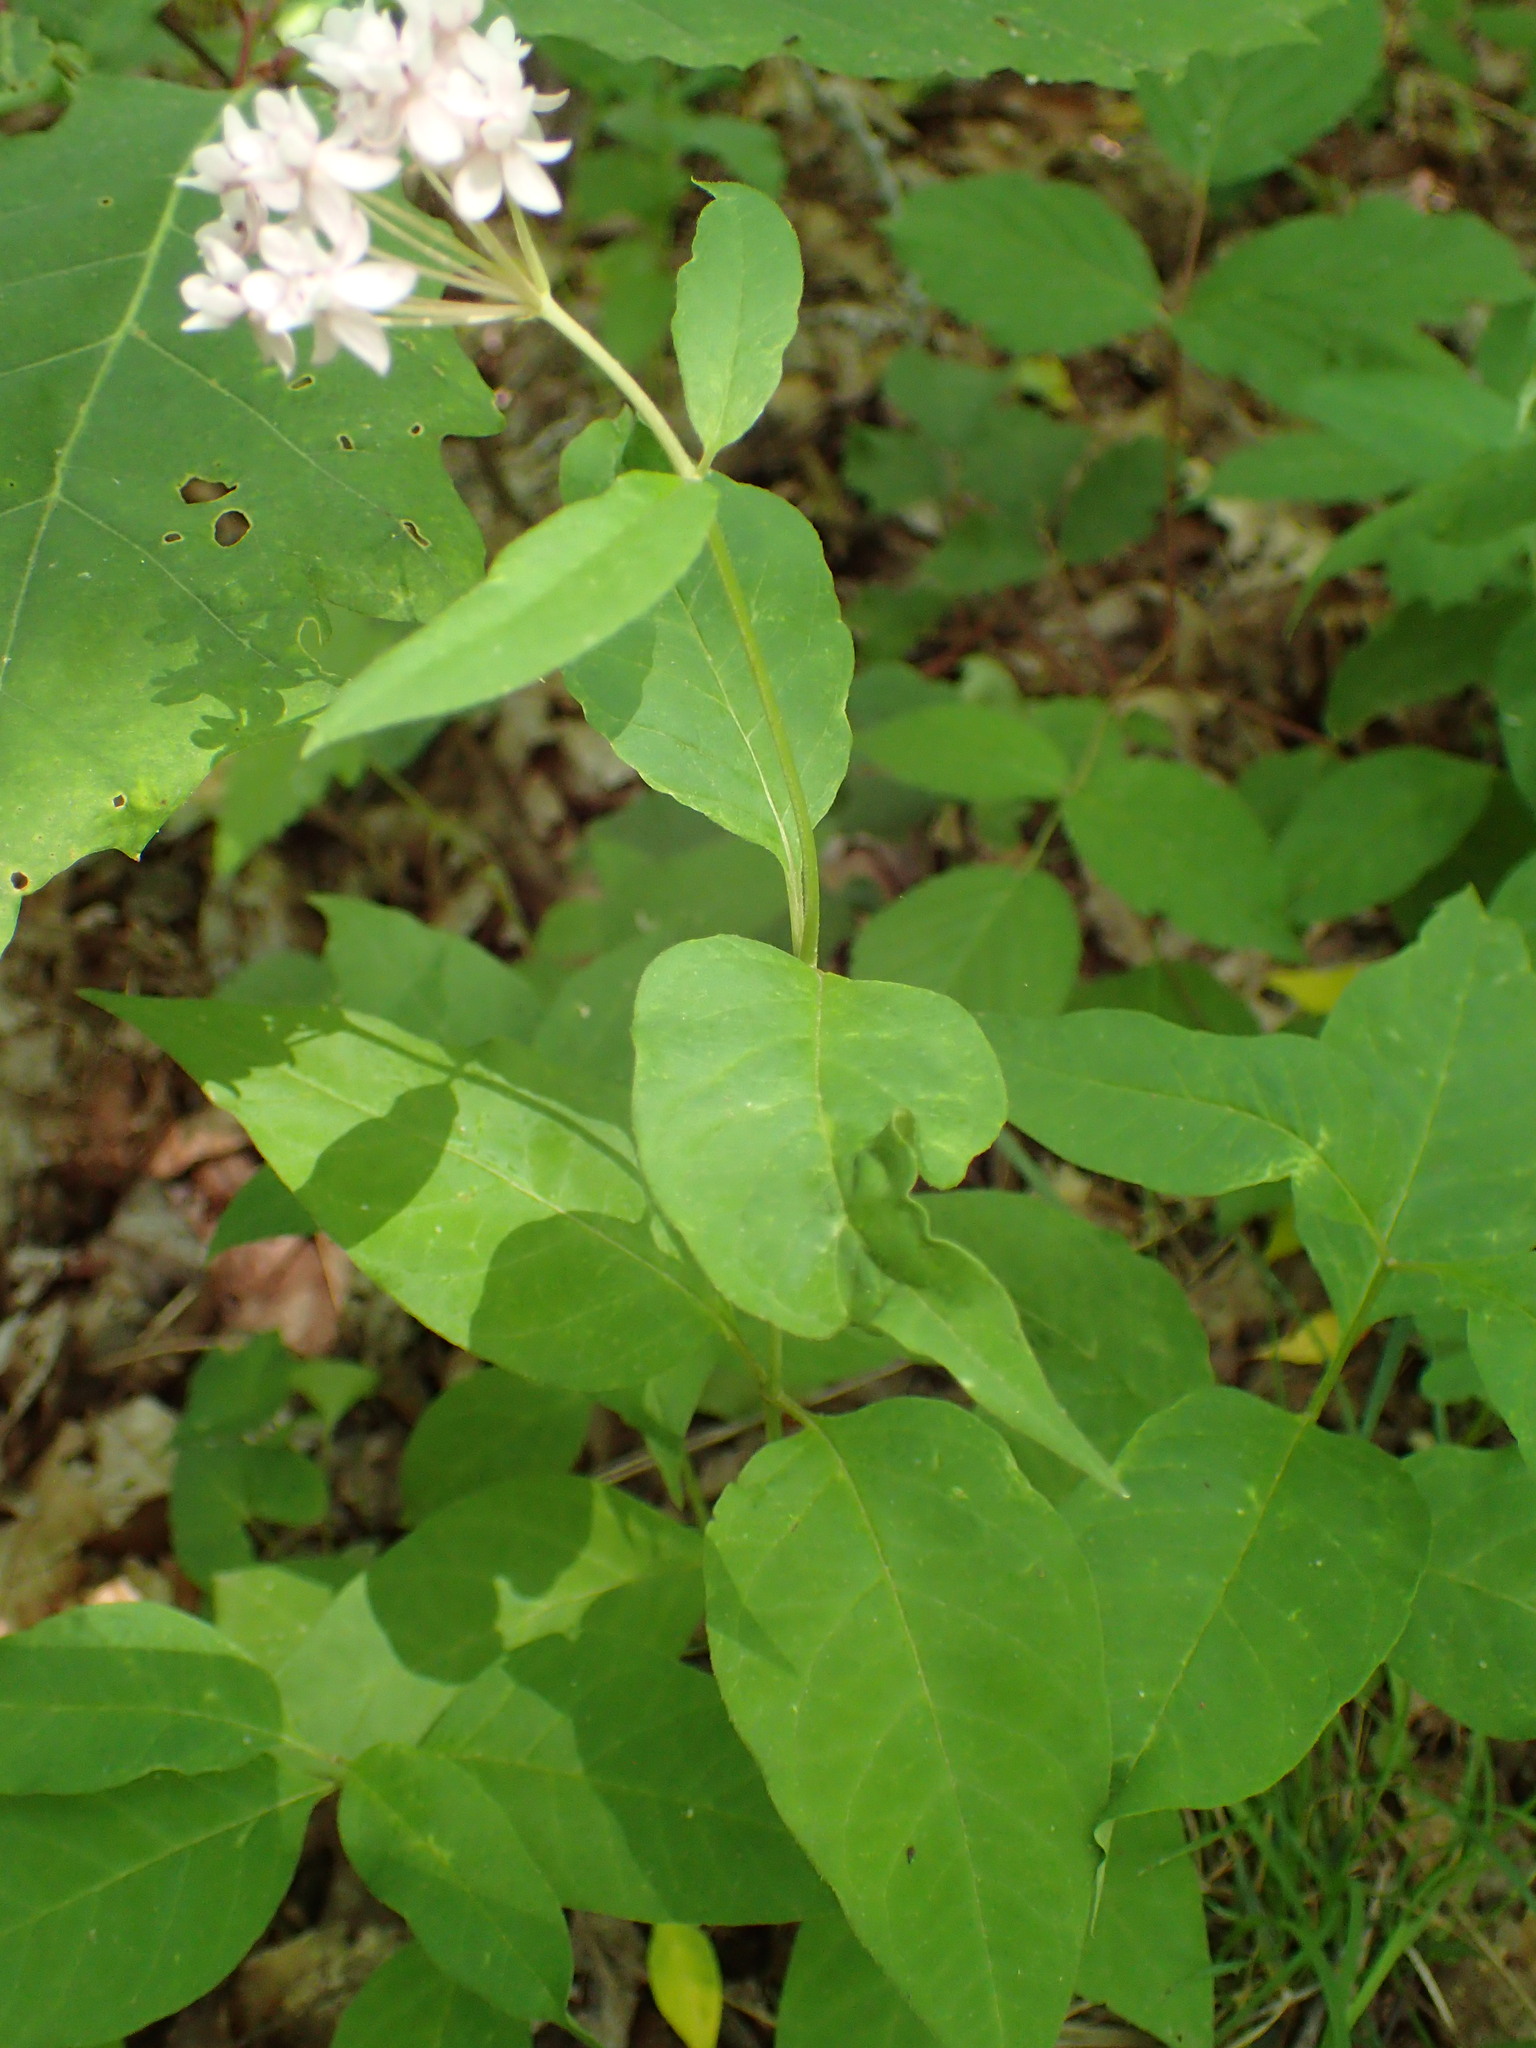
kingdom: Plantae
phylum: Tracheophyta
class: Magnoliopsida
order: Gentianales
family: Apocynaceae
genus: Asclepias
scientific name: Asclepias quadrifolia
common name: Whorled milkweed
